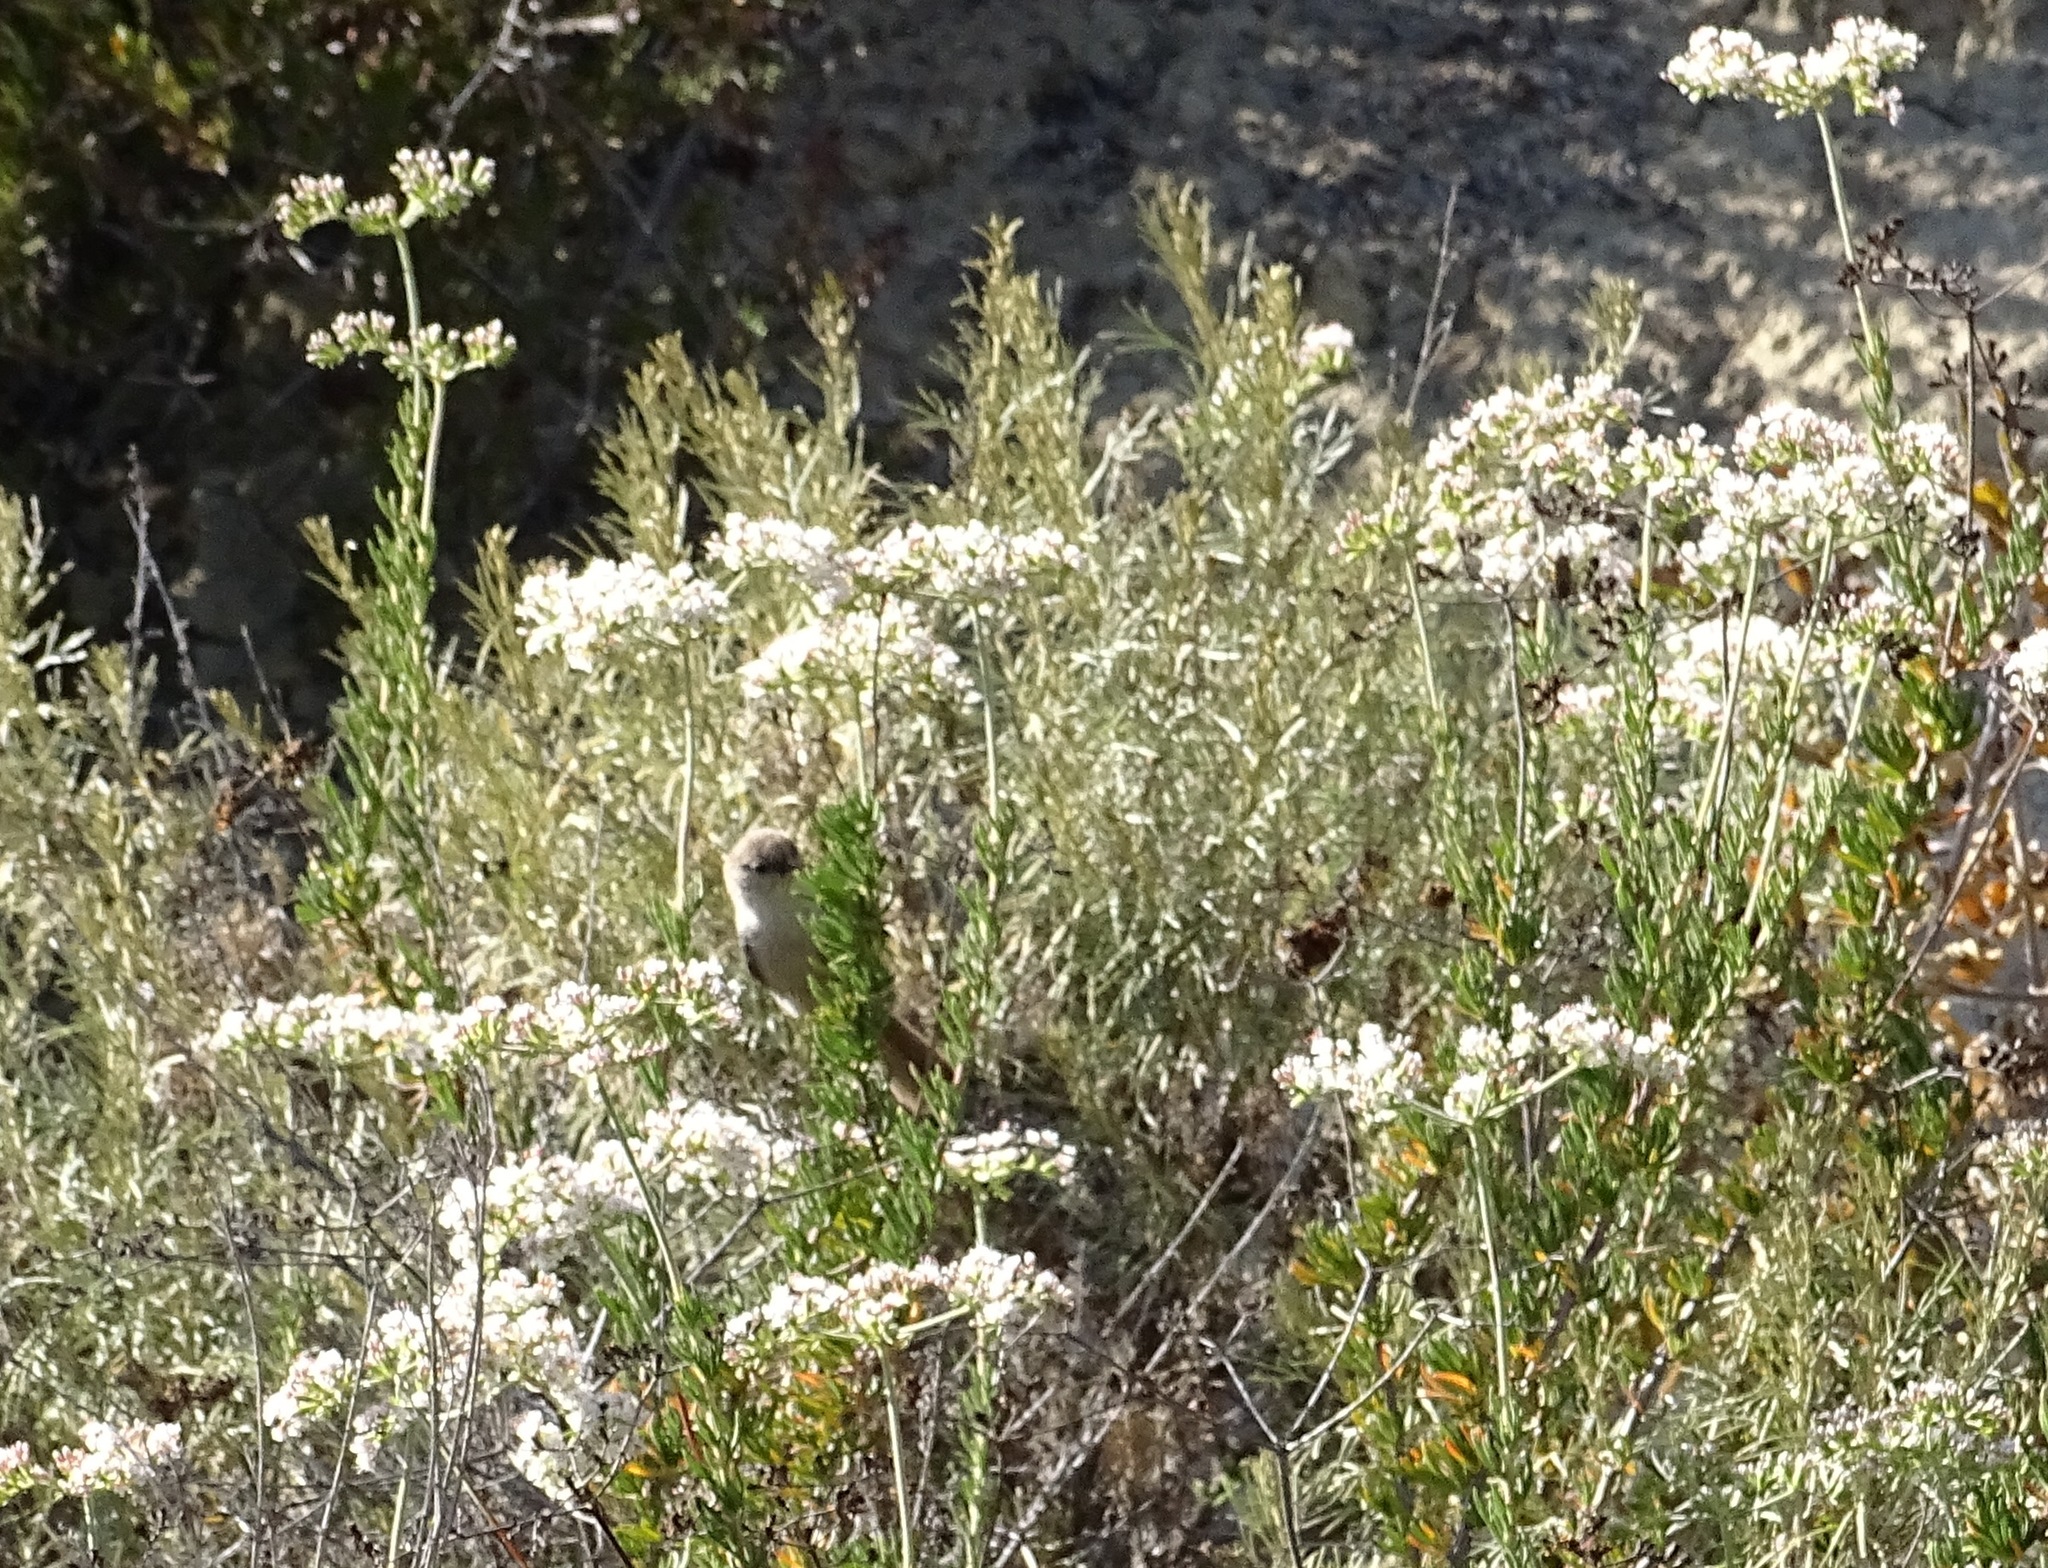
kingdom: Animalia
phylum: Chordata
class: Aves
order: Passeriformes
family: Aegithalidae
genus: Psaltriparus
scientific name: Psaltriparus minimus
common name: American bushtit
